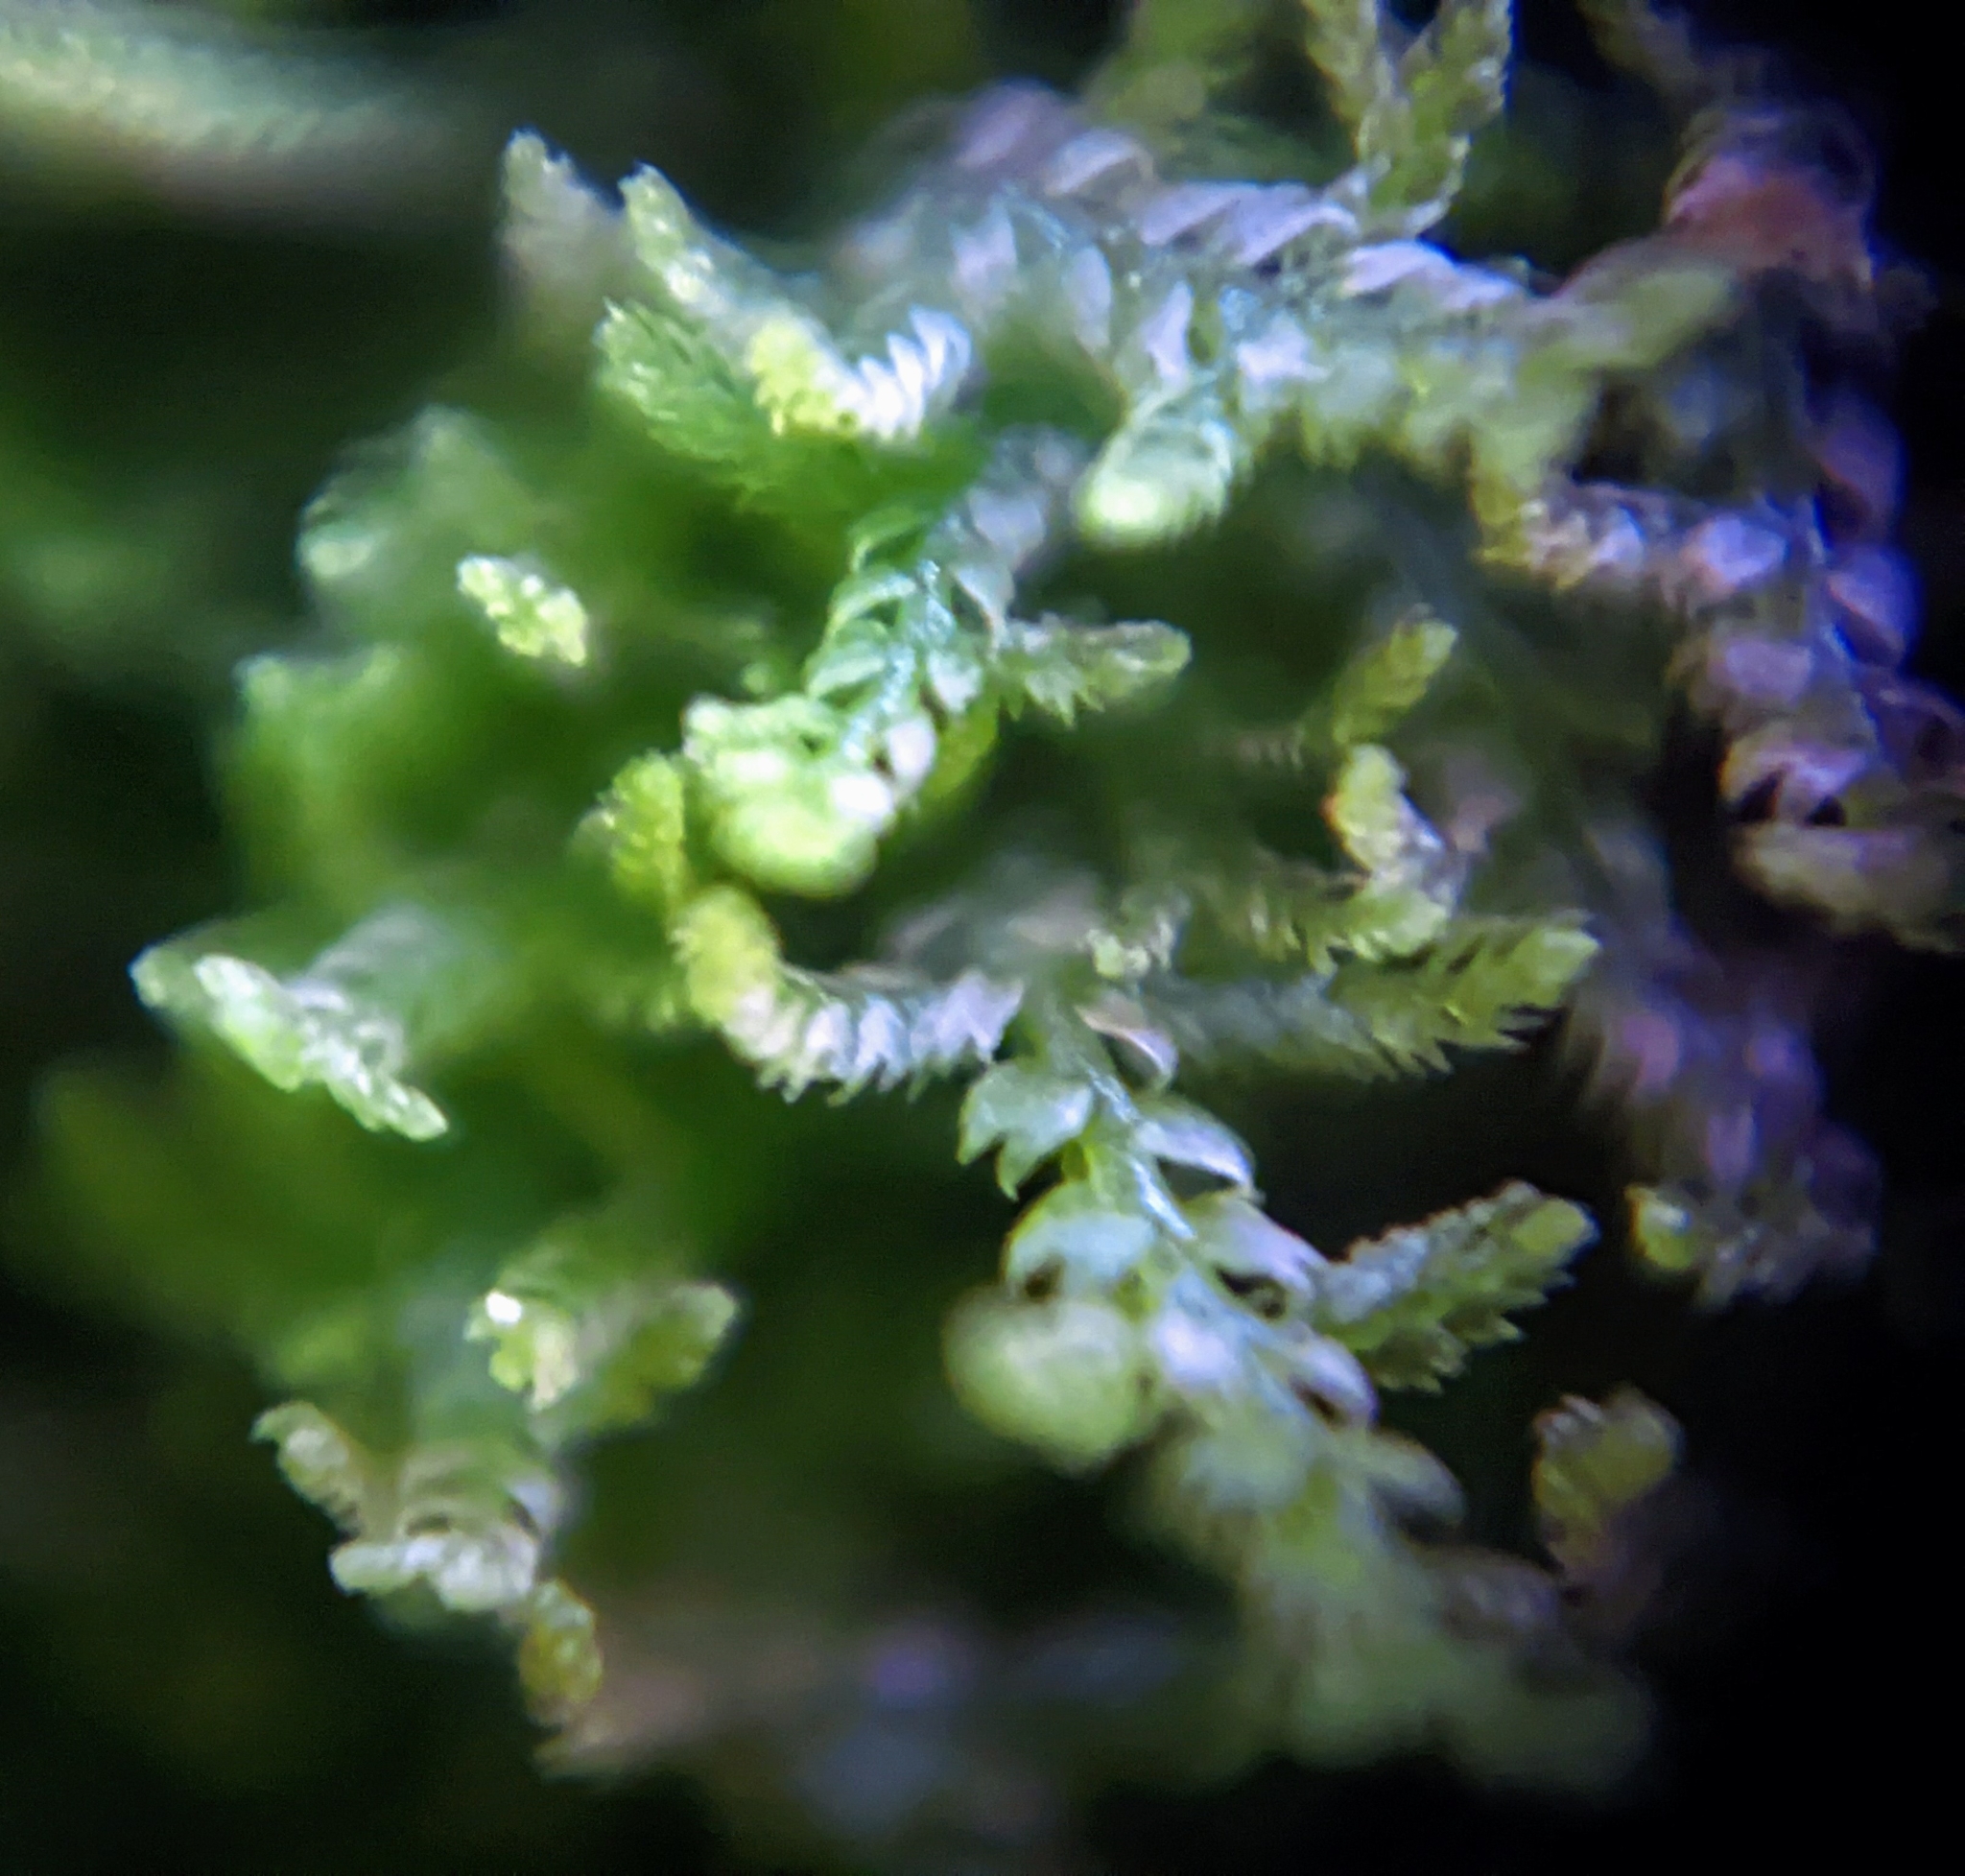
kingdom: Plantae
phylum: Marchantiophyta
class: Jungermanniopsida
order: Jungermanniales
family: Lepidoziaceae
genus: Lepidozia
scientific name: Lepidozia reptans
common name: Creeping fingerwort
